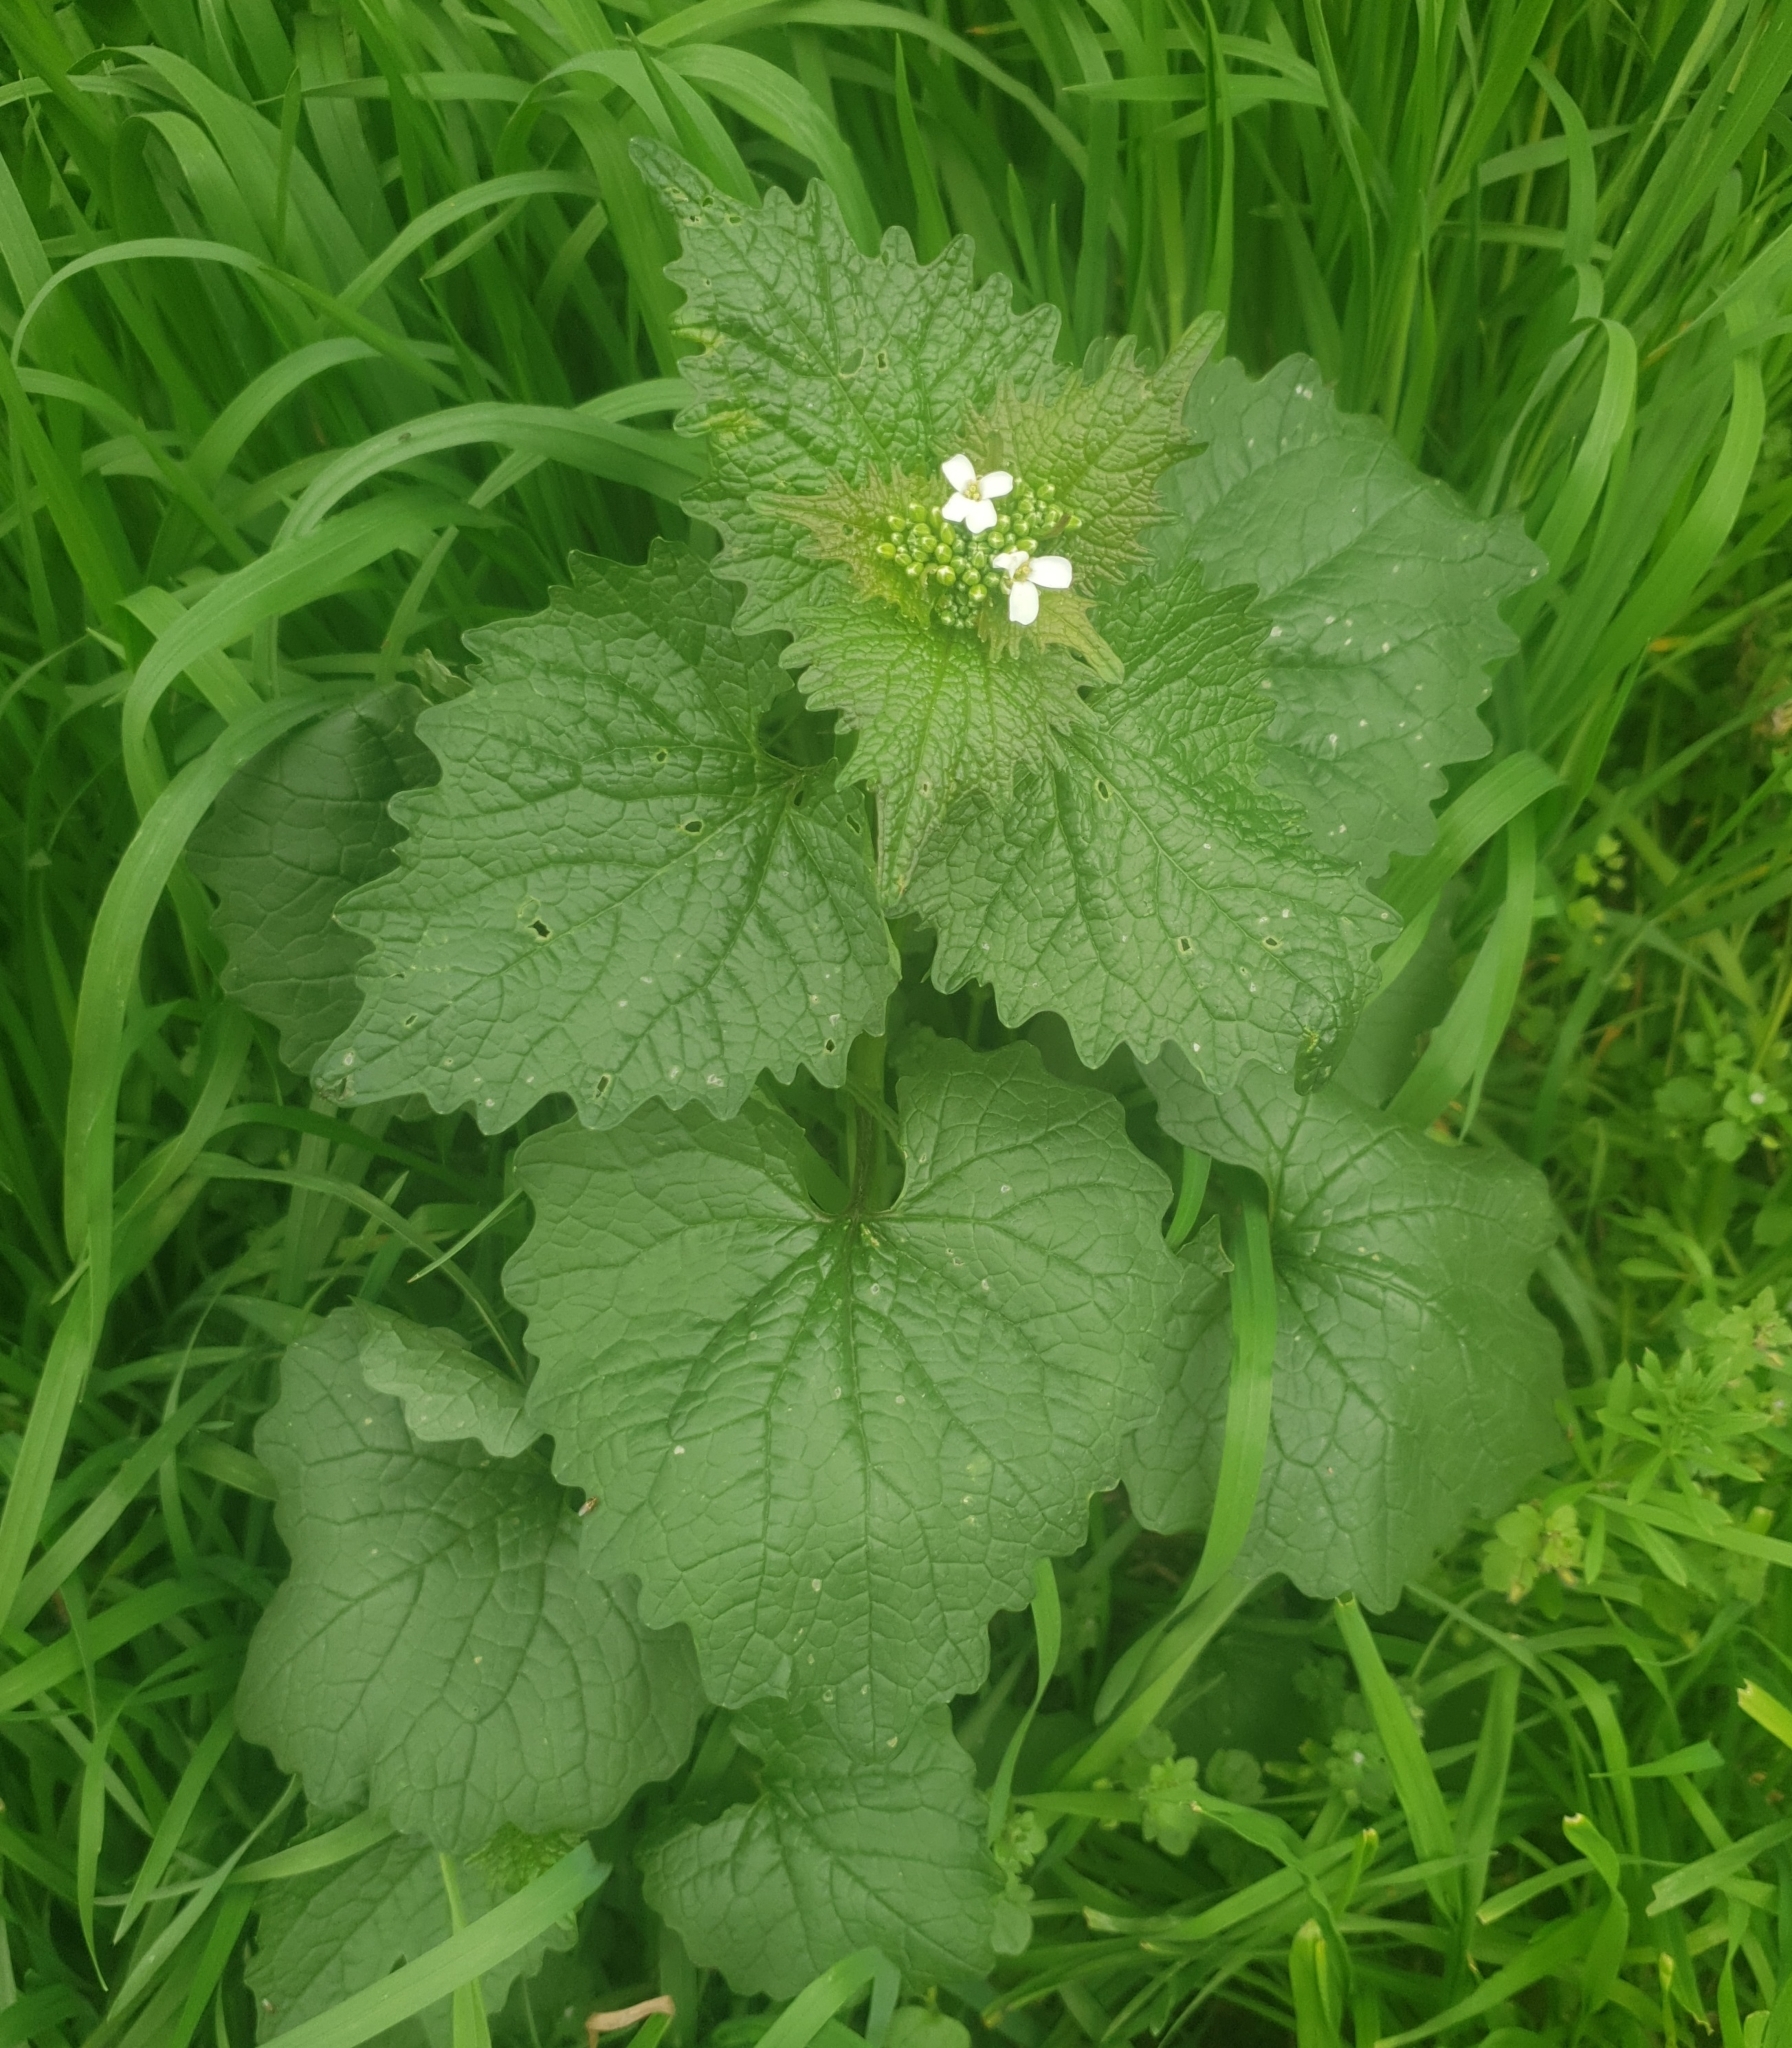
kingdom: Plantae
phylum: Tracheophyta
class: Magnoliopsida
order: Brassicales
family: Brassicaceae
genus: Alliaria
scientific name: Alliaria petiolata
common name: Garlic mustard
